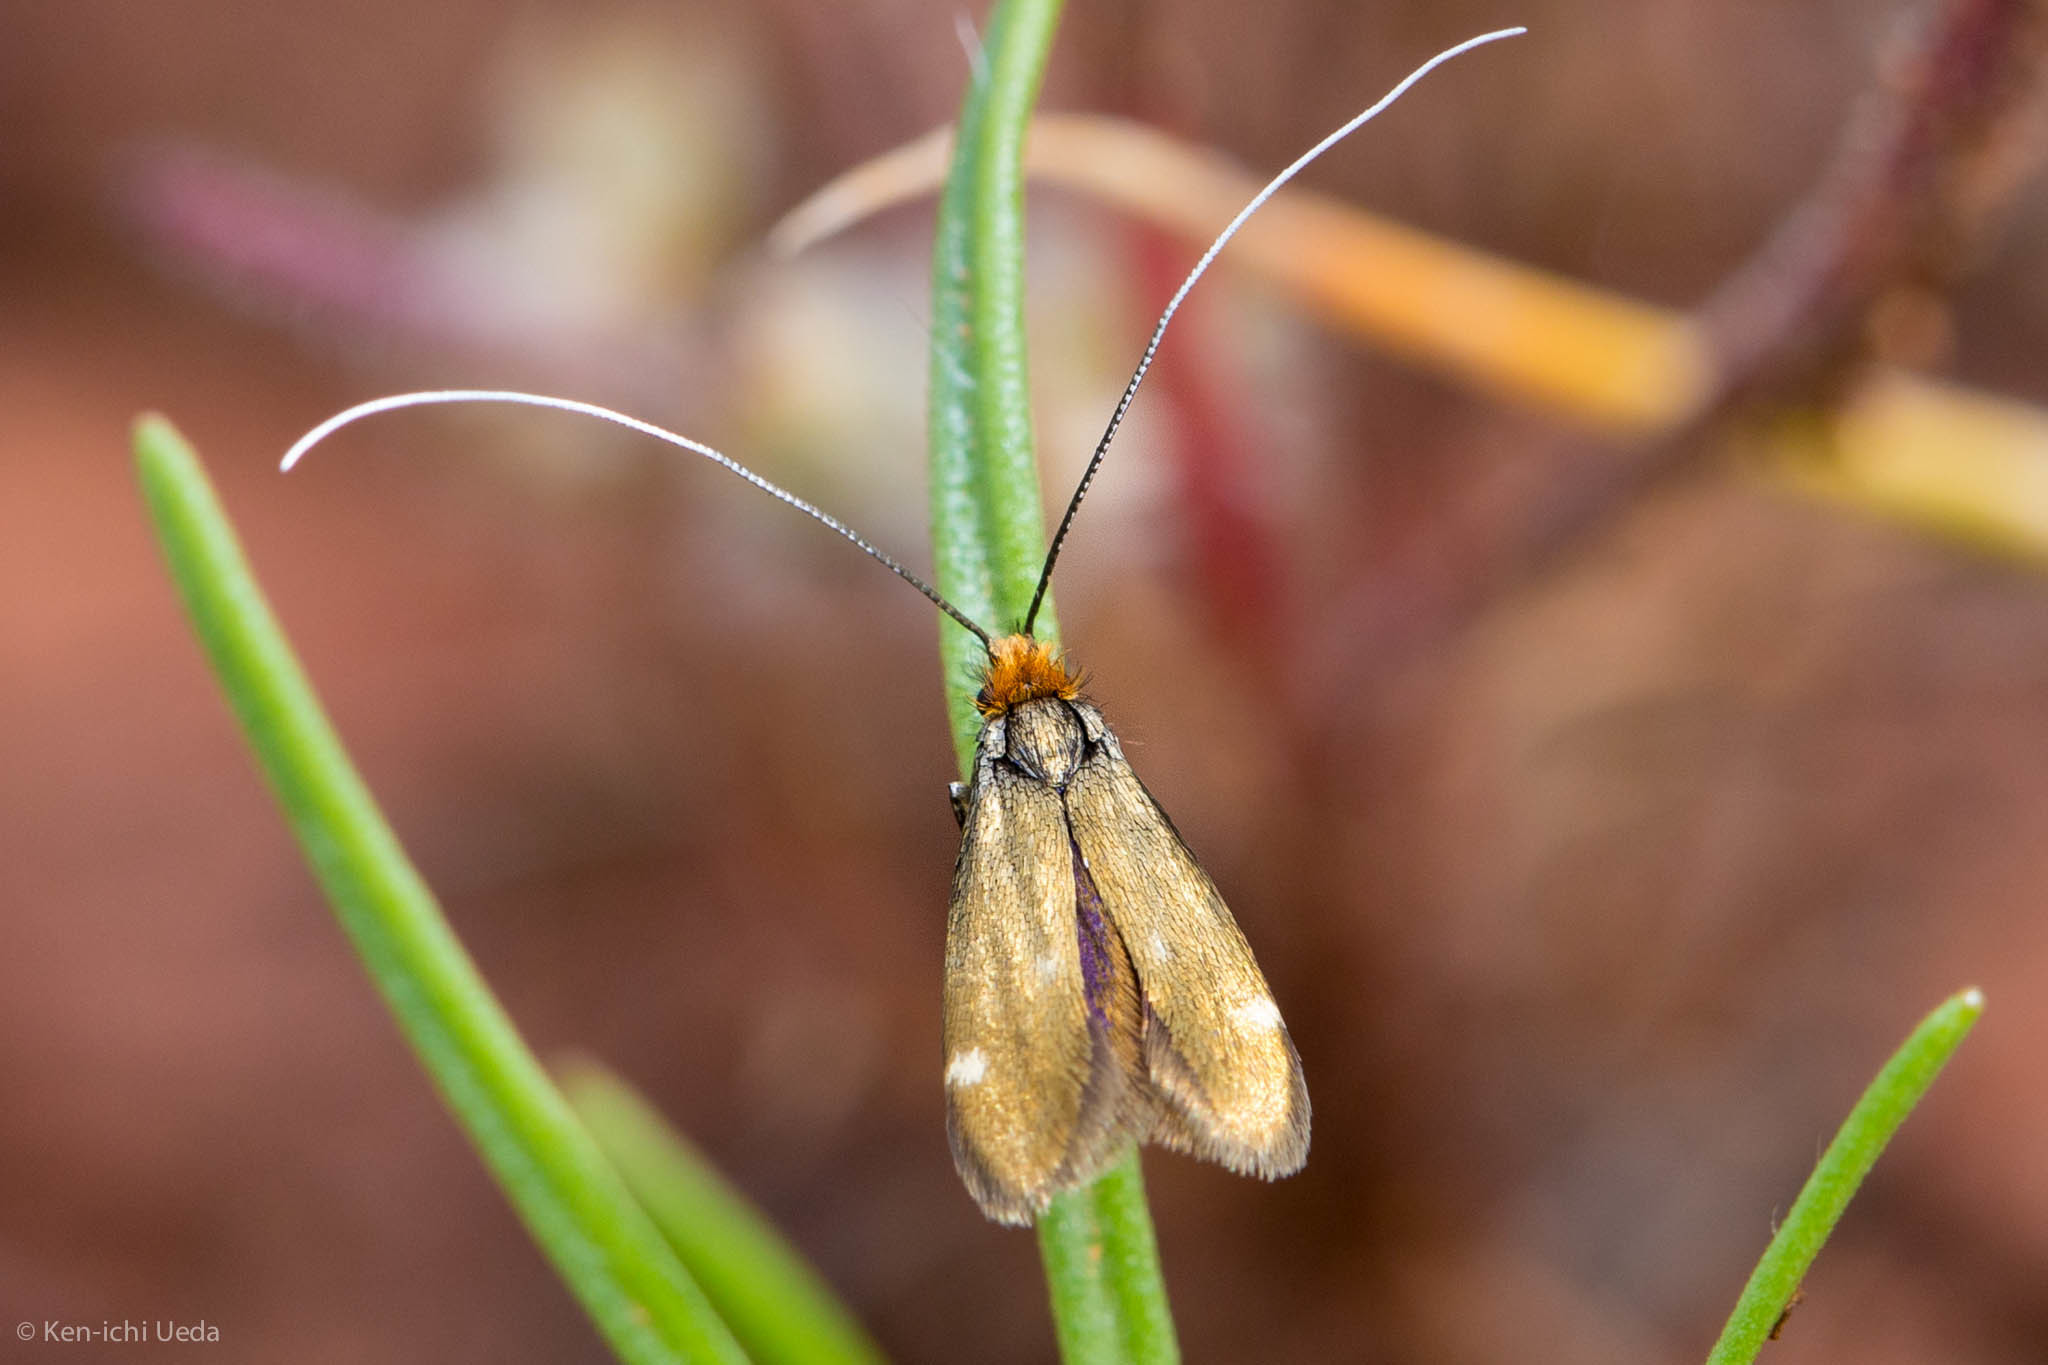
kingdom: Animalia
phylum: Arthropoda
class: Insecta
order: Lepidoptera
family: Adelidae
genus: Adela
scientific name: Adela flammeusella
